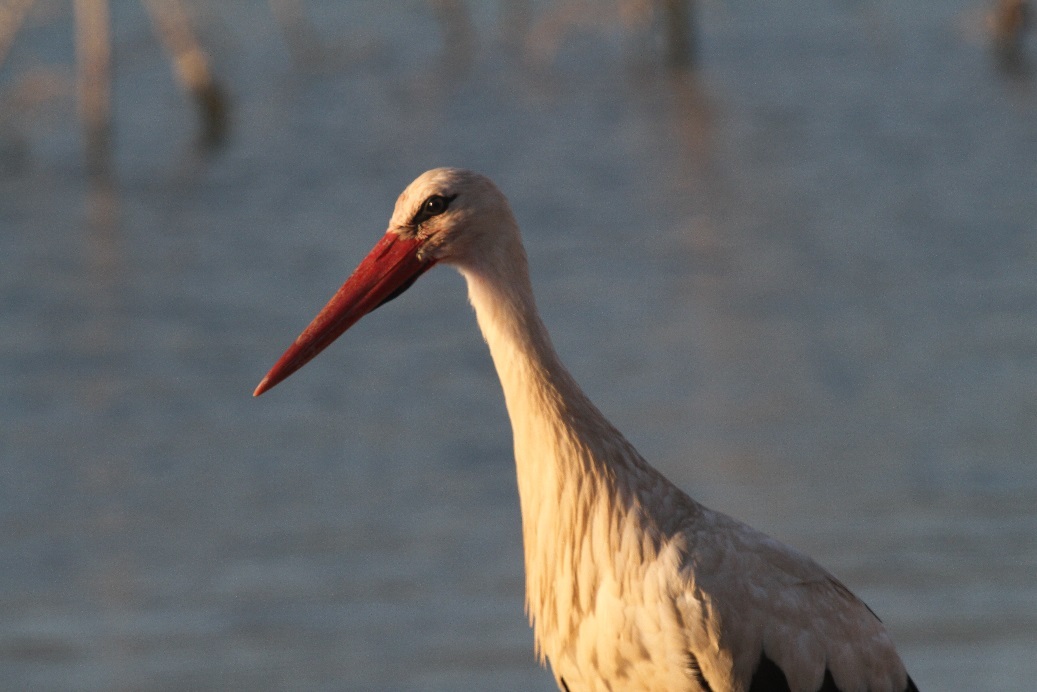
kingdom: Animalia
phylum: Chordata
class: Aves
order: Ciconiiformes
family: Ciconiidae
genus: Ciconia
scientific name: Ciconia ciconia
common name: White stork
